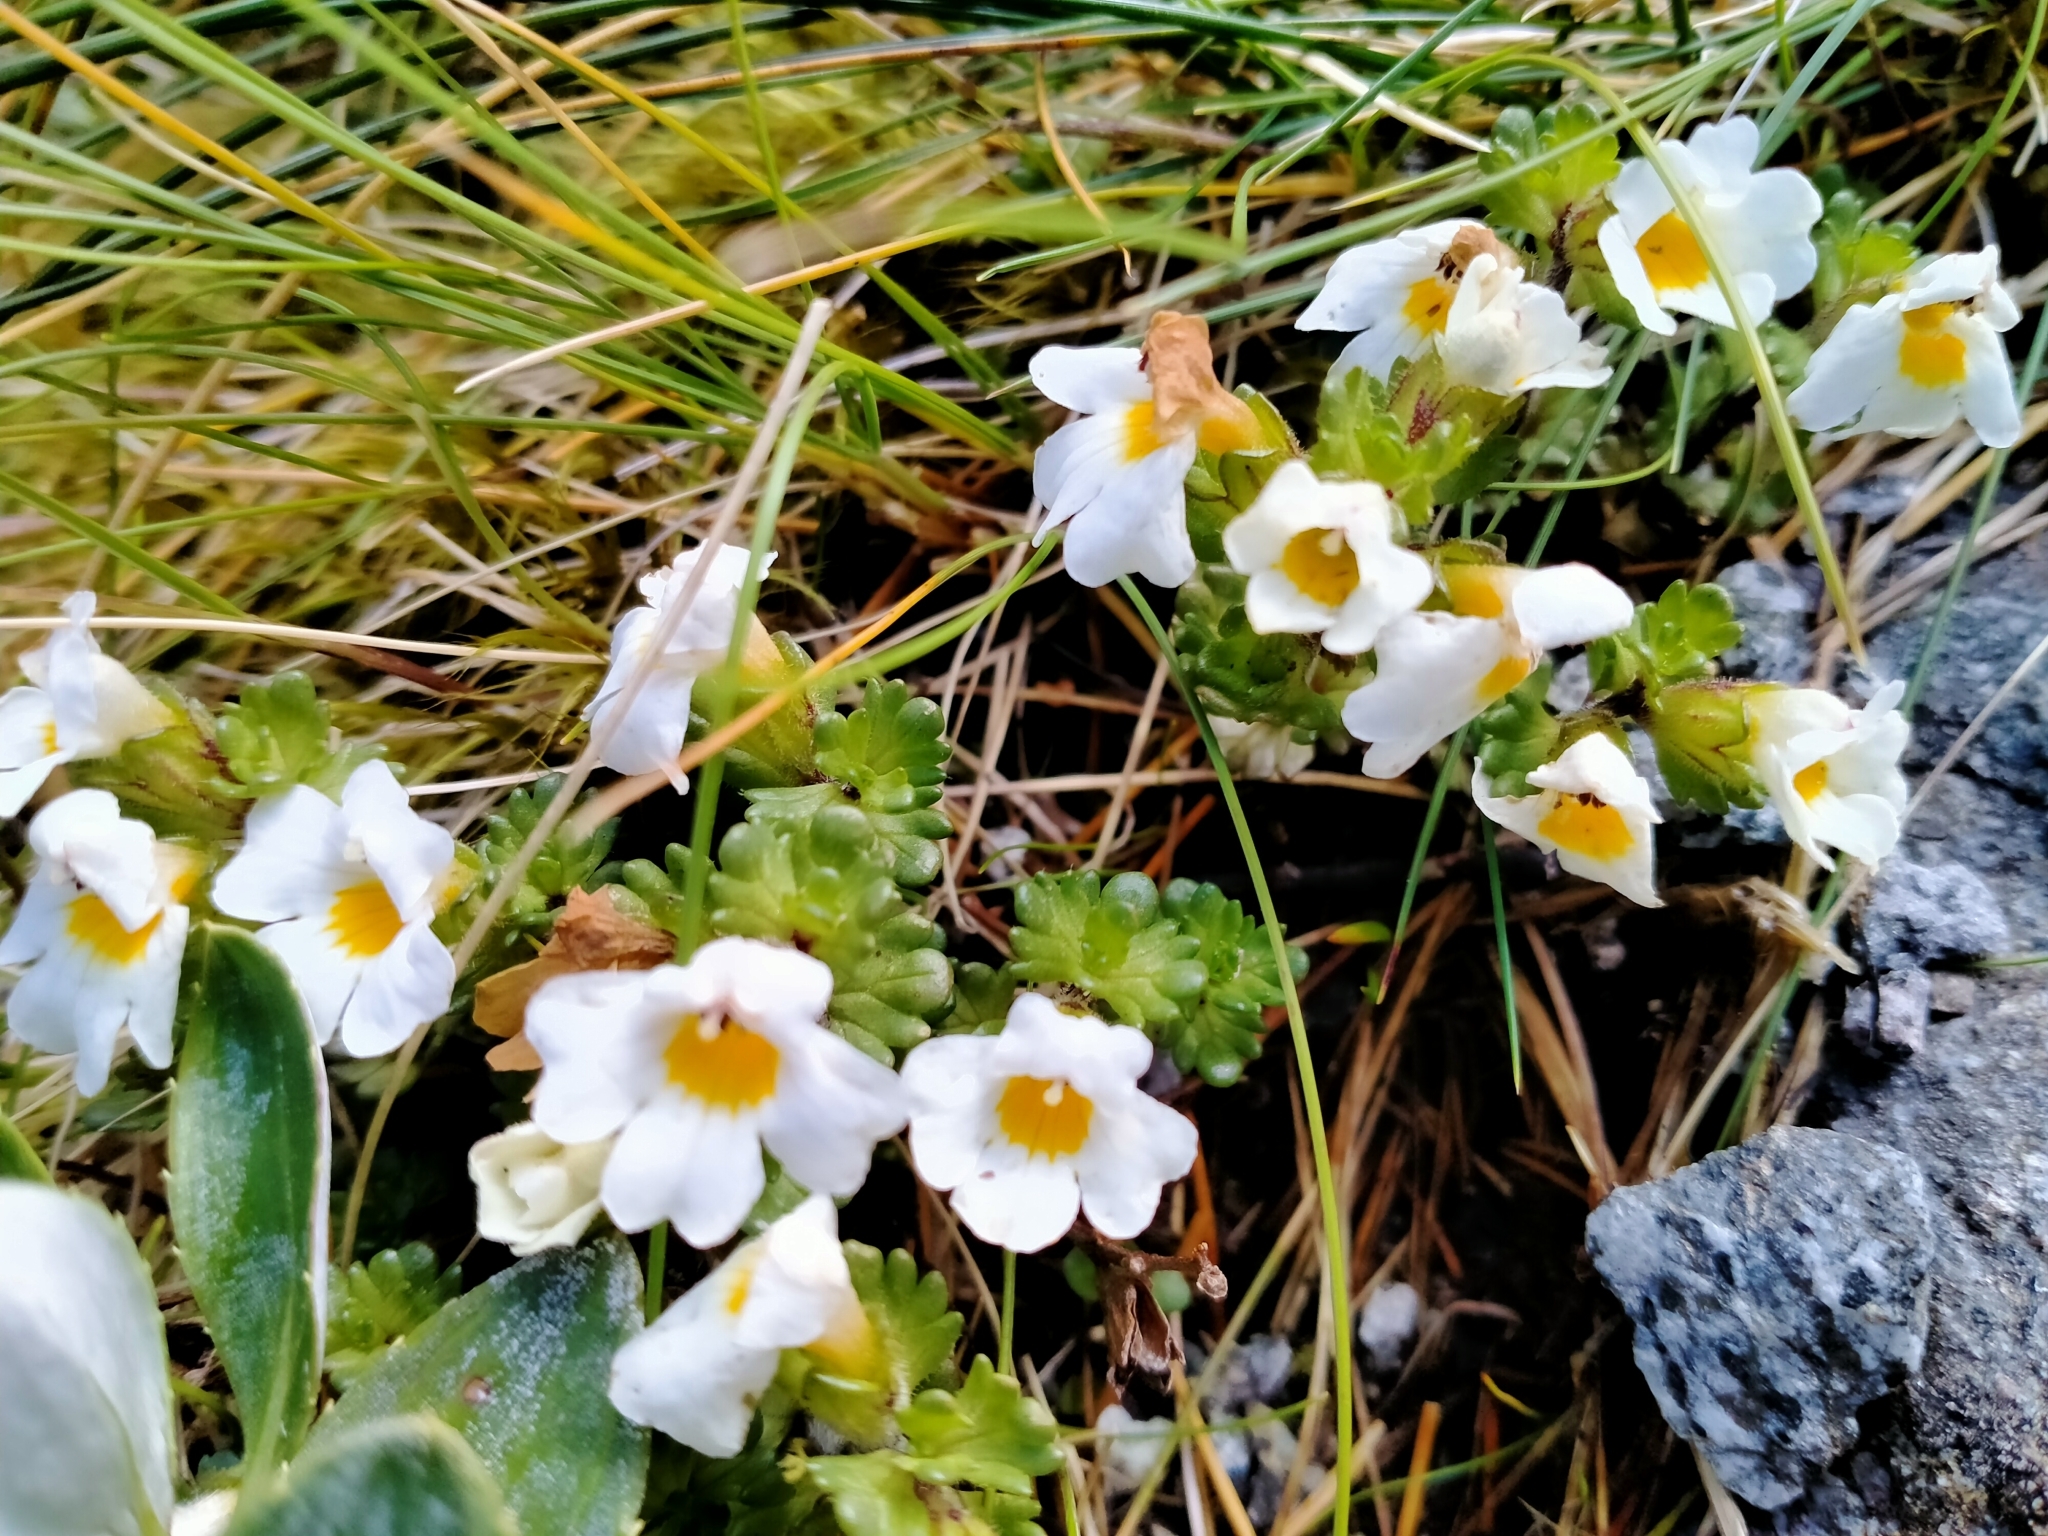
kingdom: Plantae
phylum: Tracheophyta
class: Magnoliopsida
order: Lamiales
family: Orobanchaceae
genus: Euphrasia
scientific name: Euphrasia petriei
